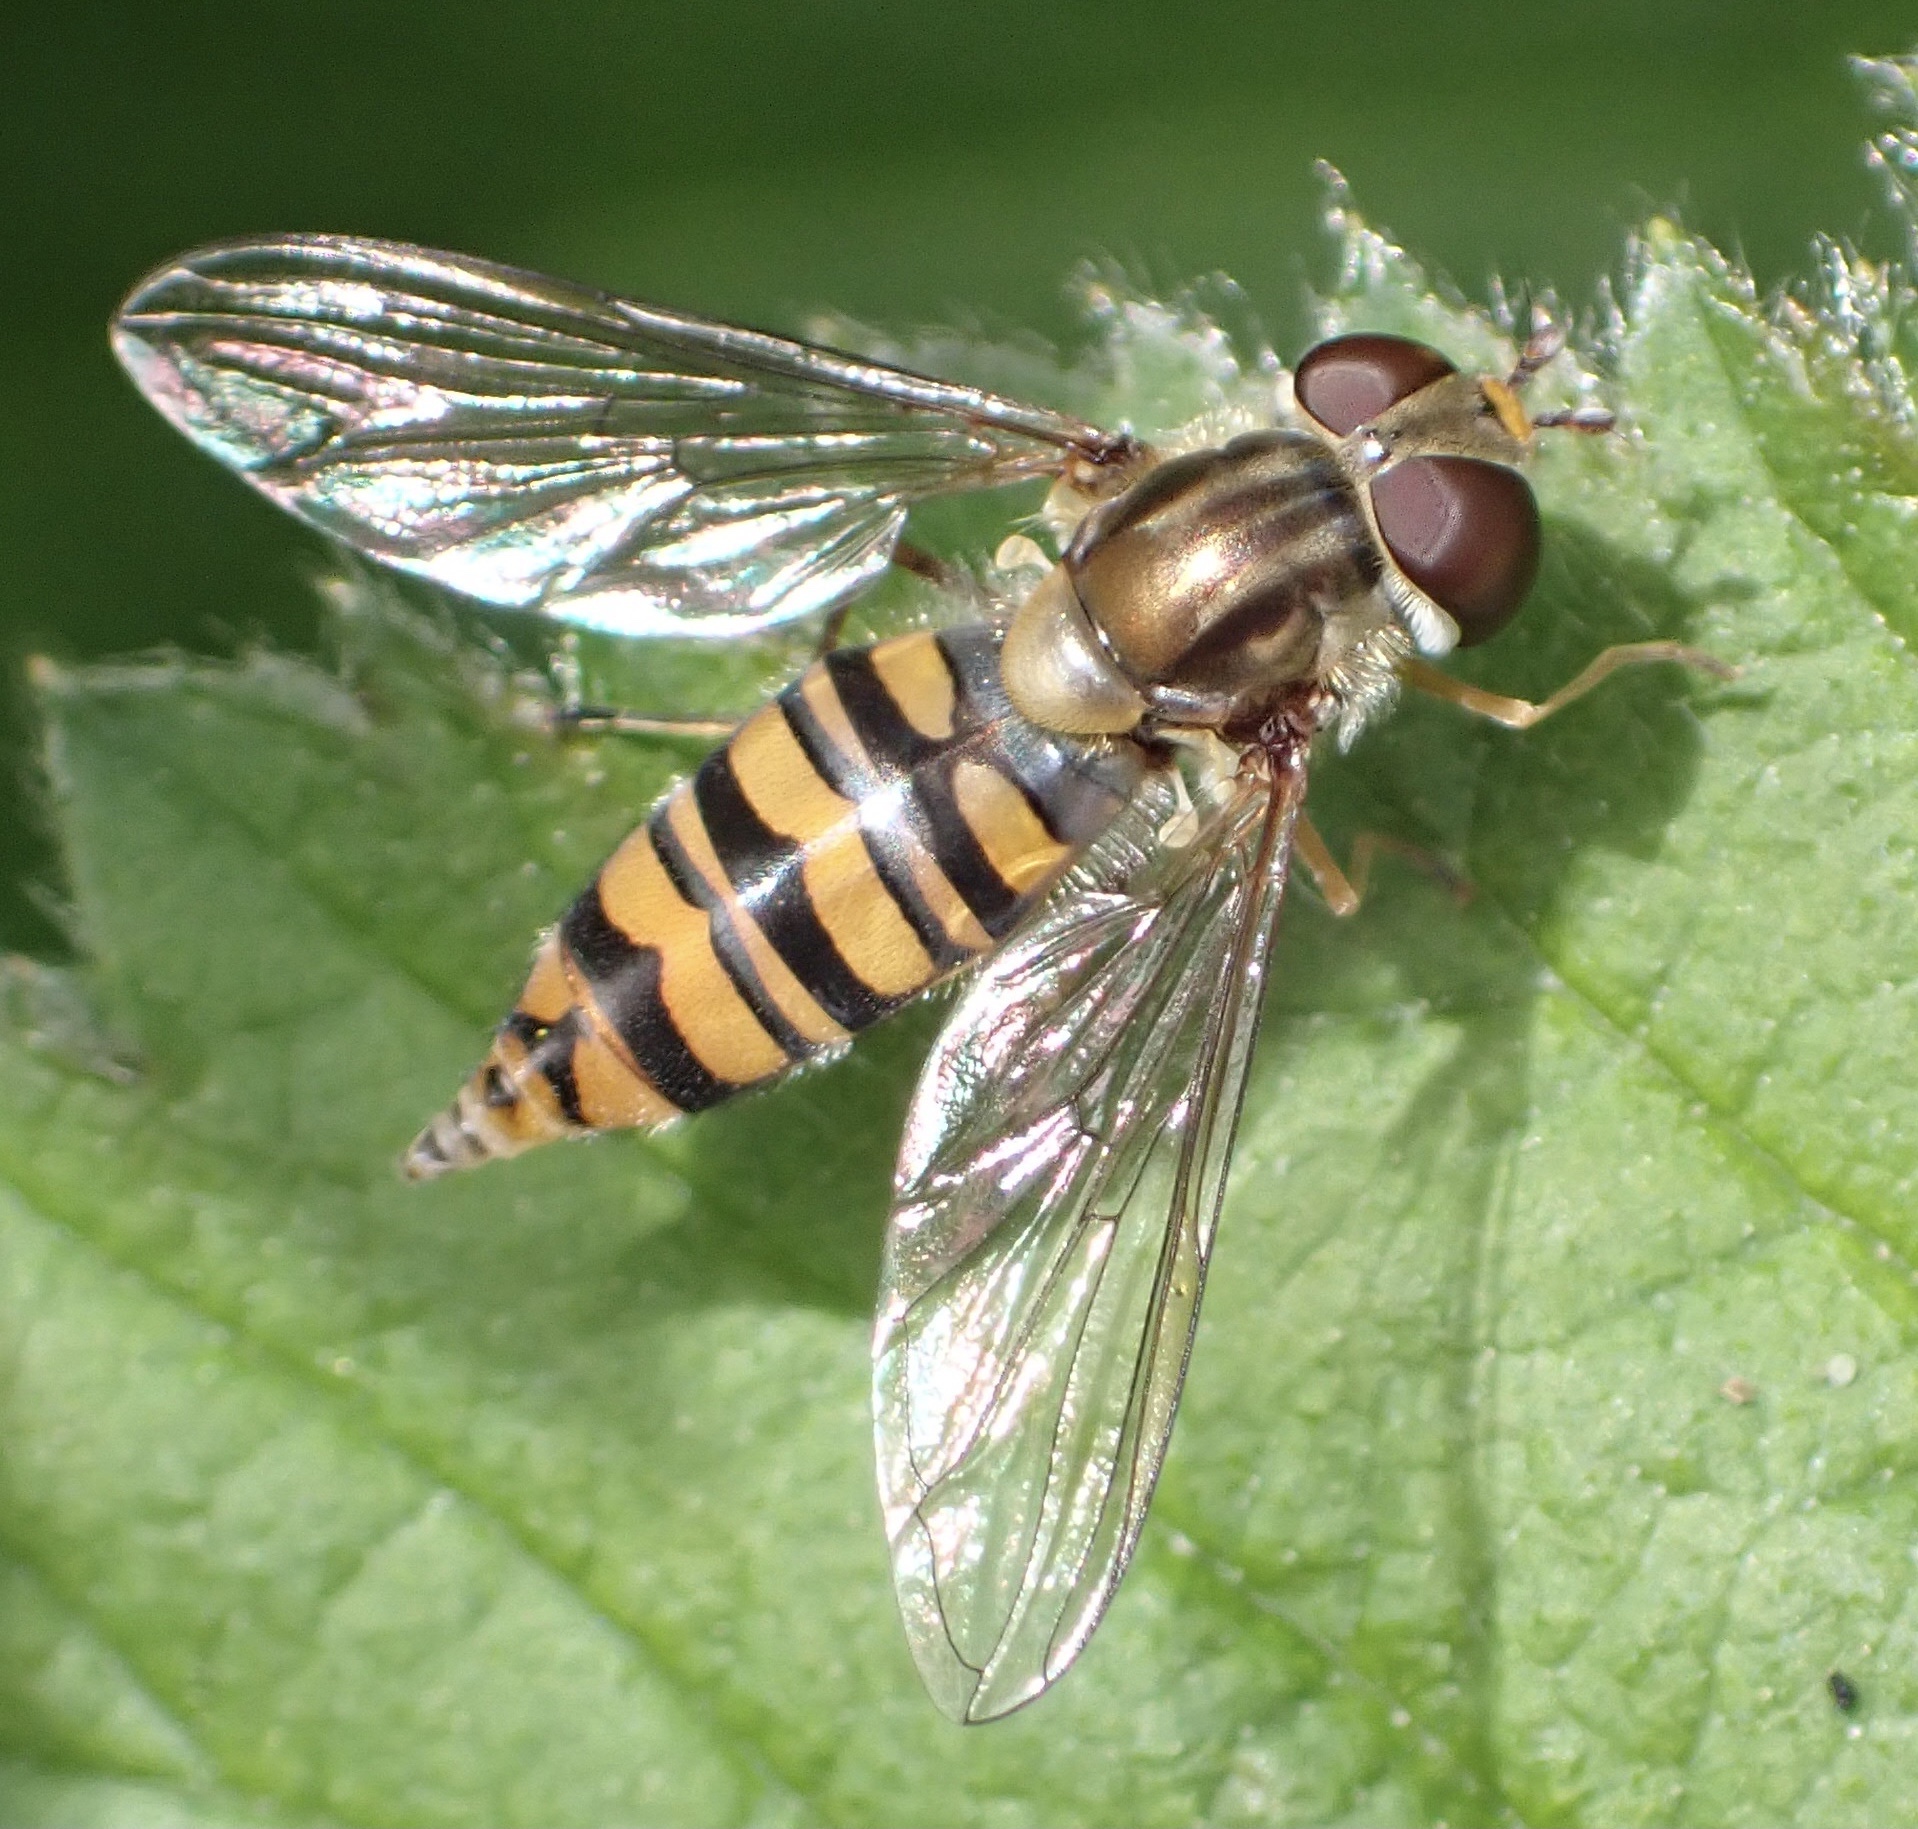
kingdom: Animalia
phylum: Arthropoda
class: Insecta
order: Diptera
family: Syrphidae
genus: Episyrphus
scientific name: Episyrphus balteatus
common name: Marmalade hoverfly
